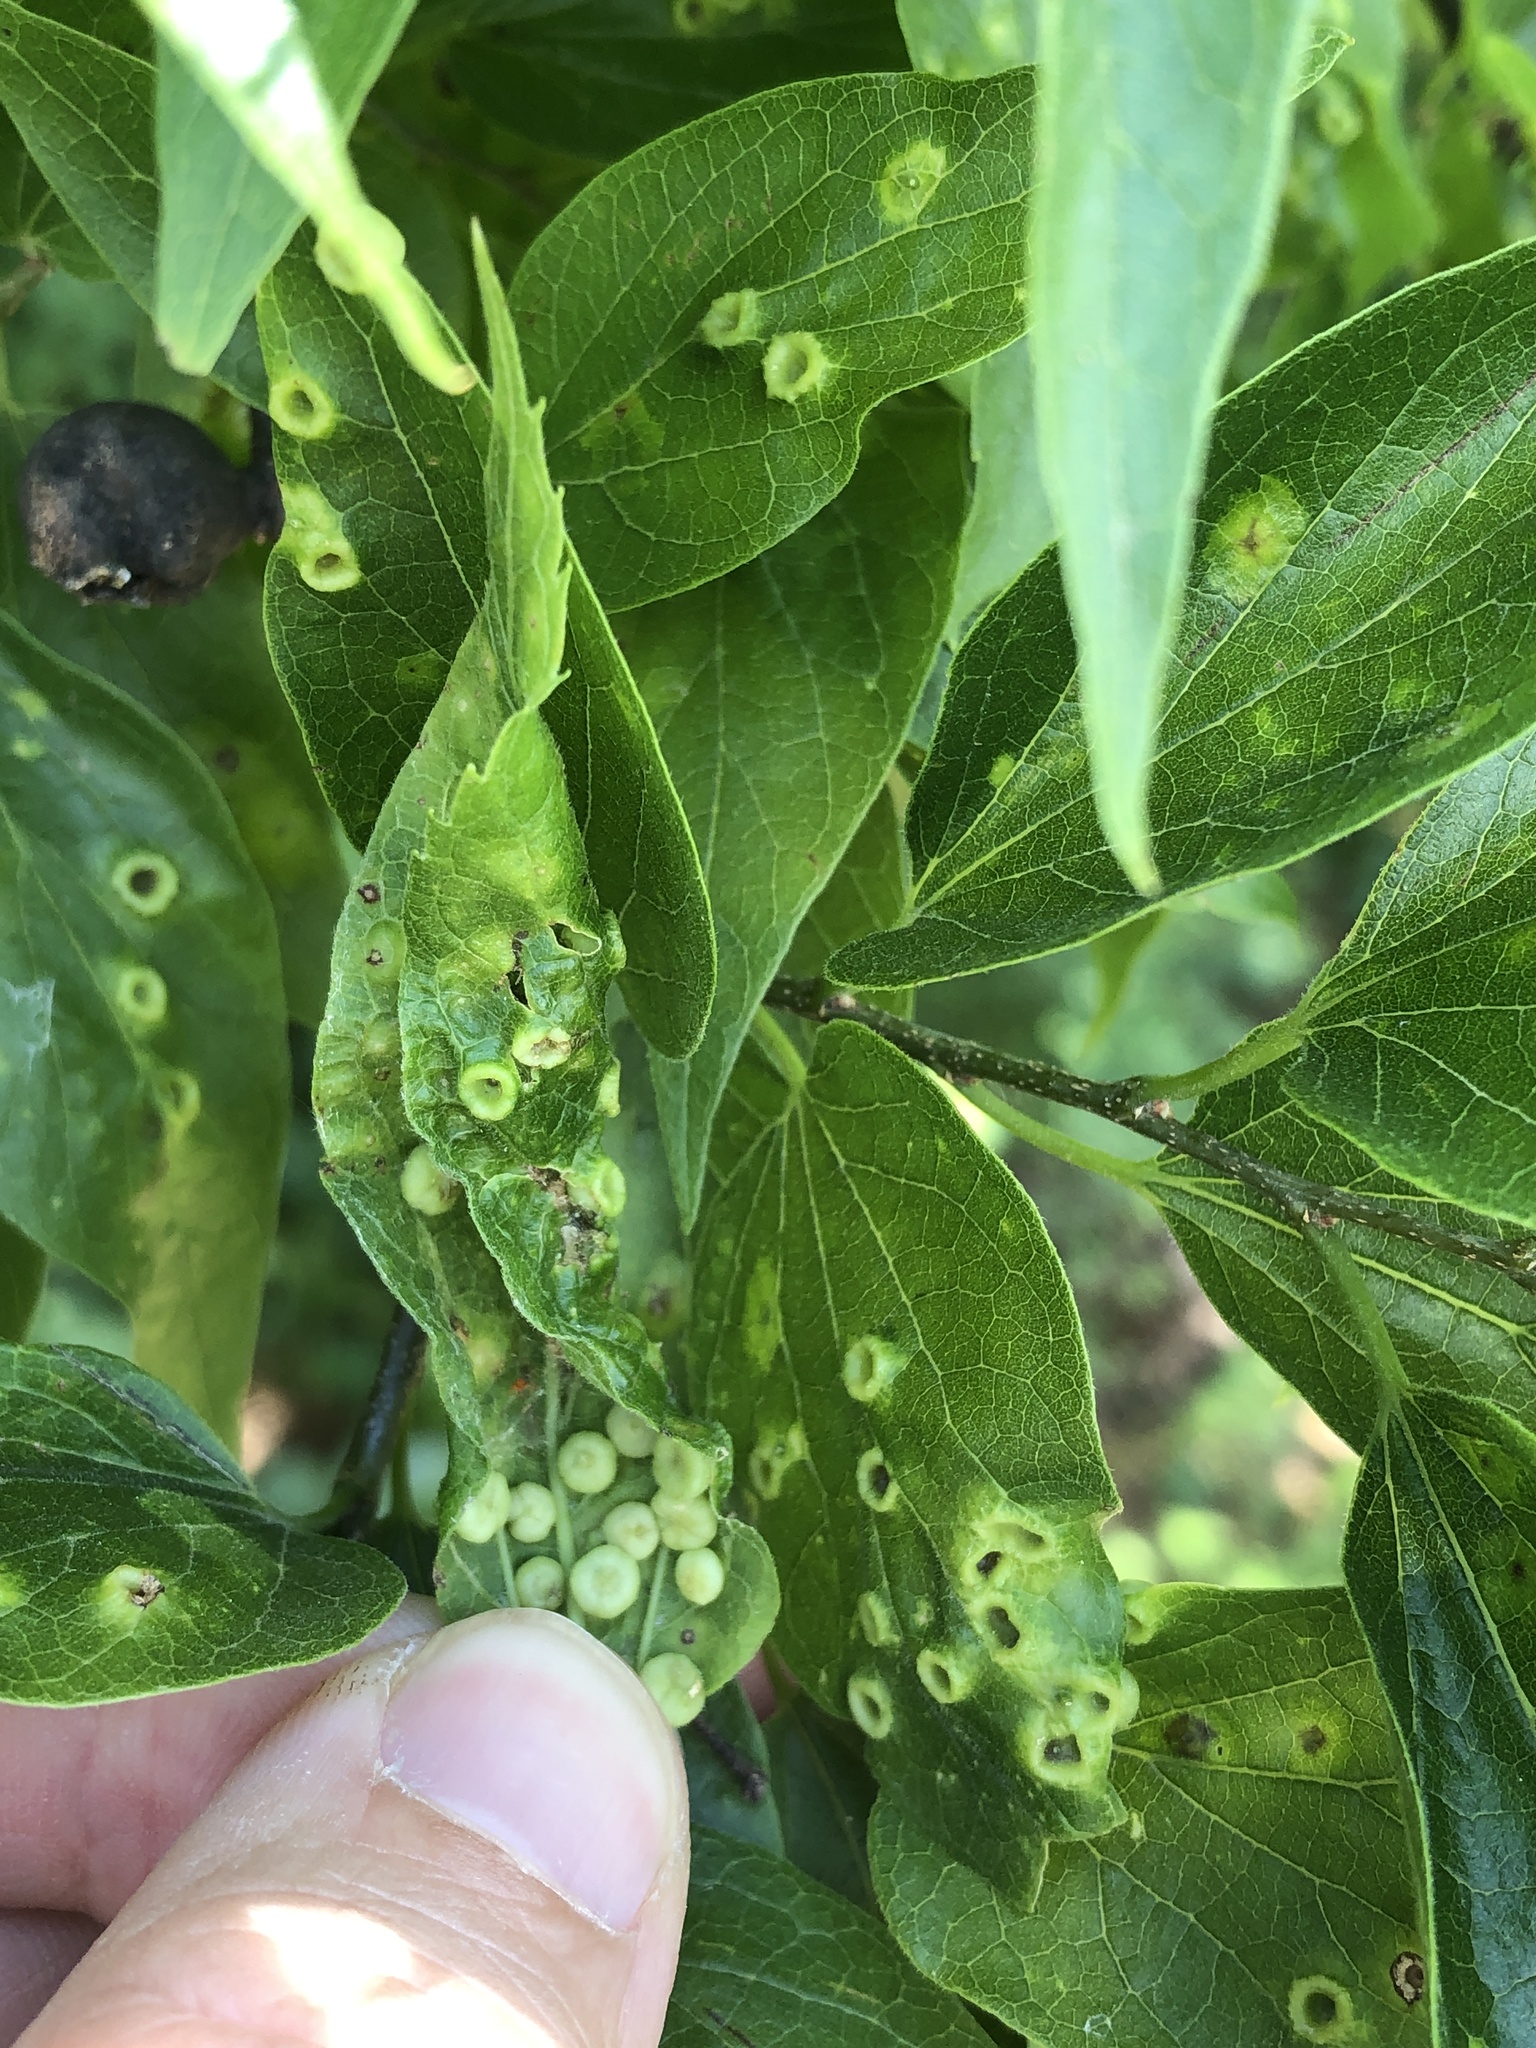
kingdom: Animalia
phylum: Arthropoda
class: Insecta
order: Hemiptera
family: Aphalaridae
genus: Pachypsylla
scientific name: Pachypsylla celtidismamma
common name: Hackberry nipplegall psyllid
